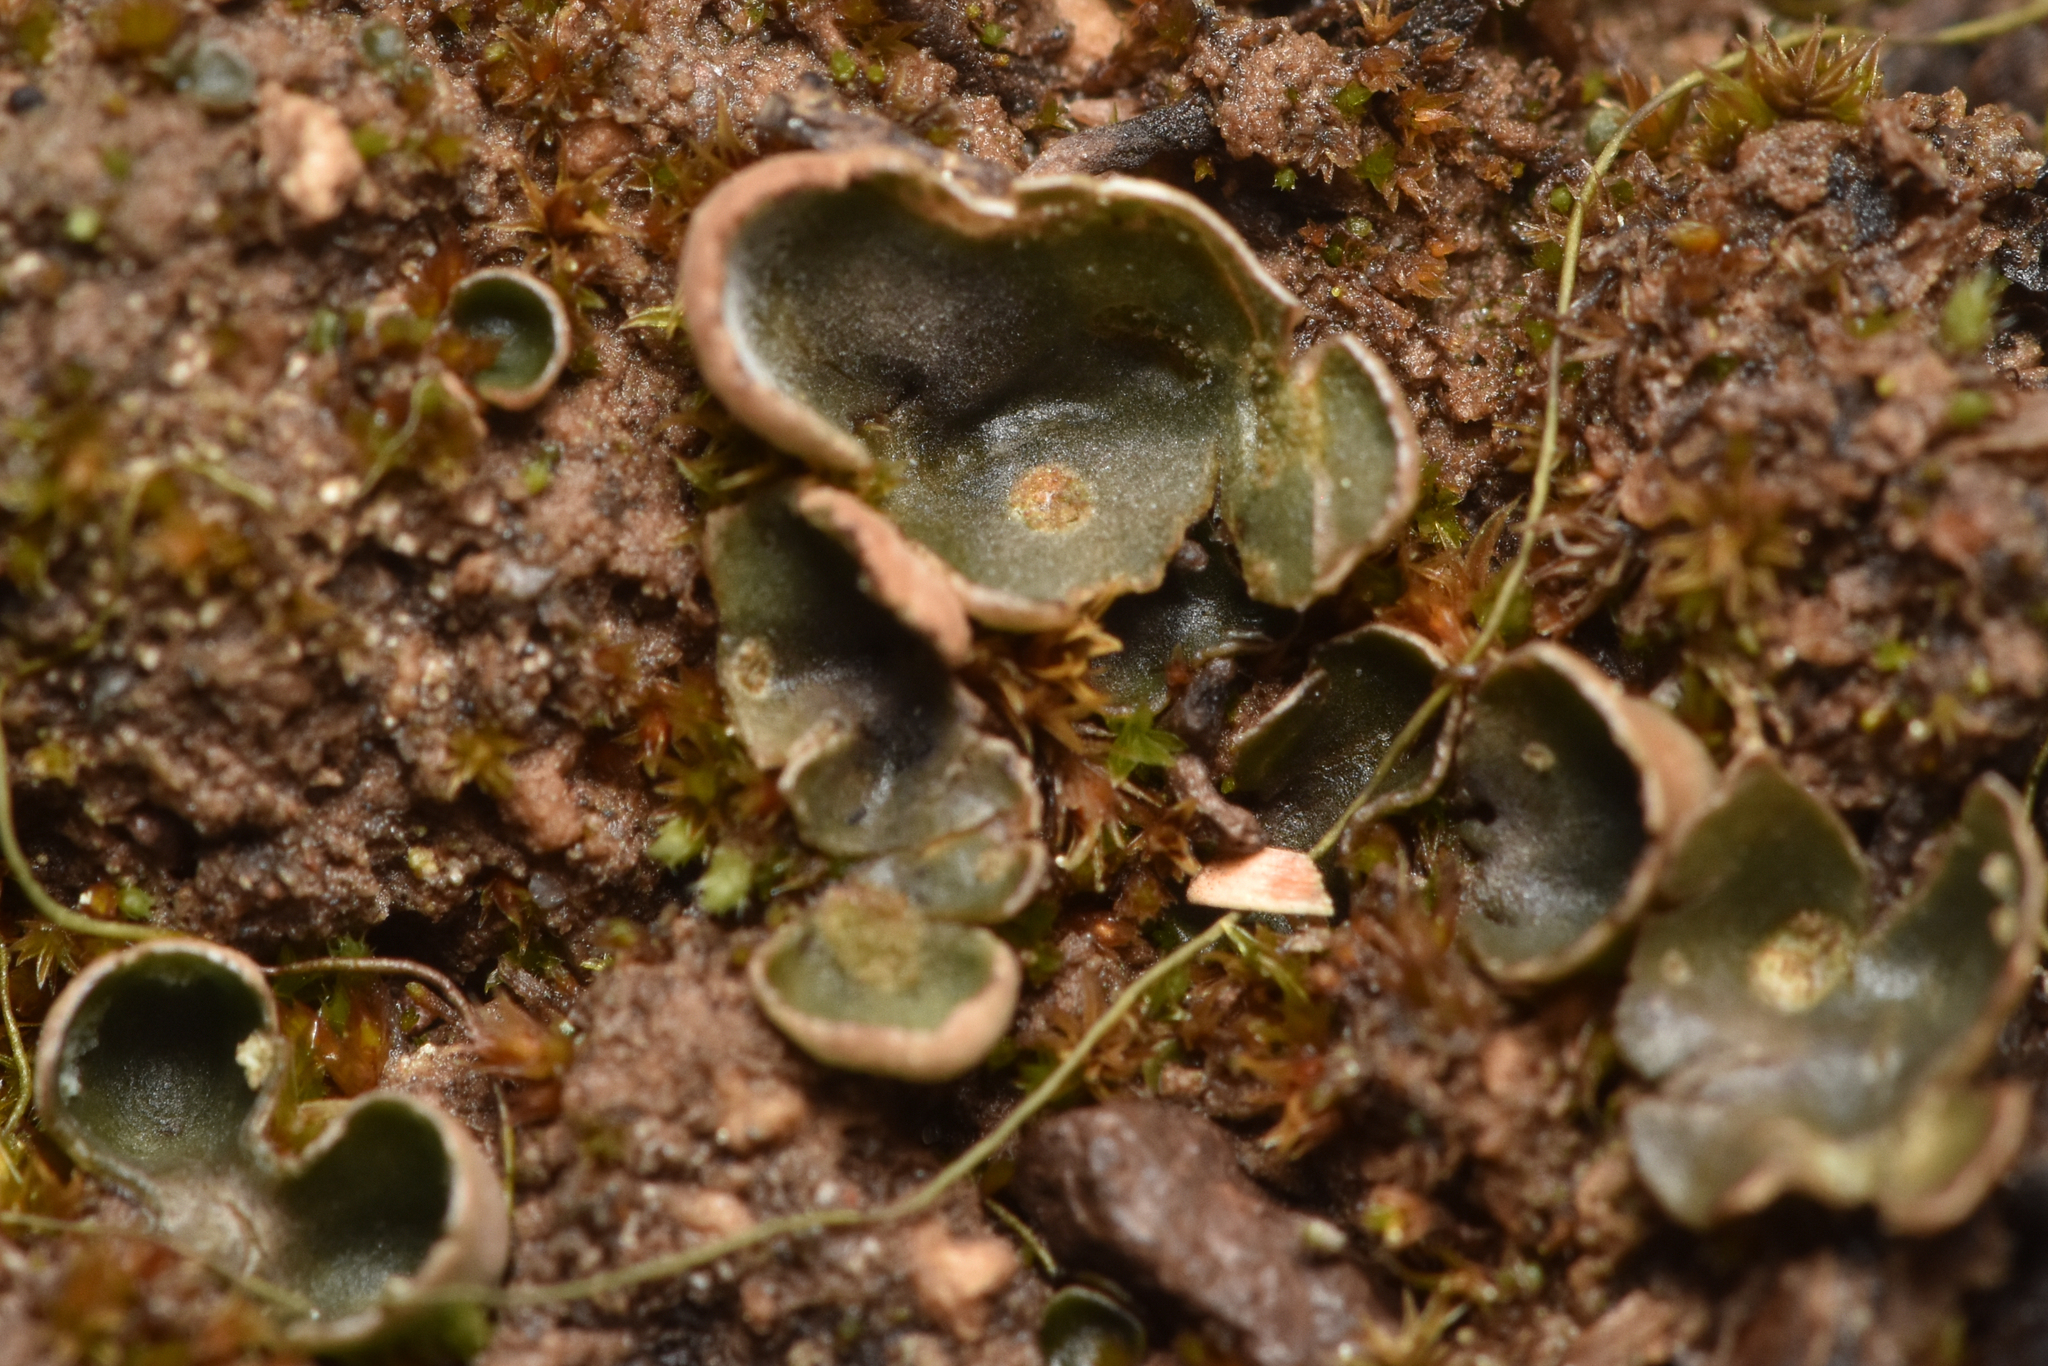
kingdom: Fungi
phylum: Ascomycota
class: Lecanoromycetes
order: Peltigerales
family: Peltigeraceae
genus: Peltigera
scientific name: Peltigera didactyla
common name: Alternating dog lichen
